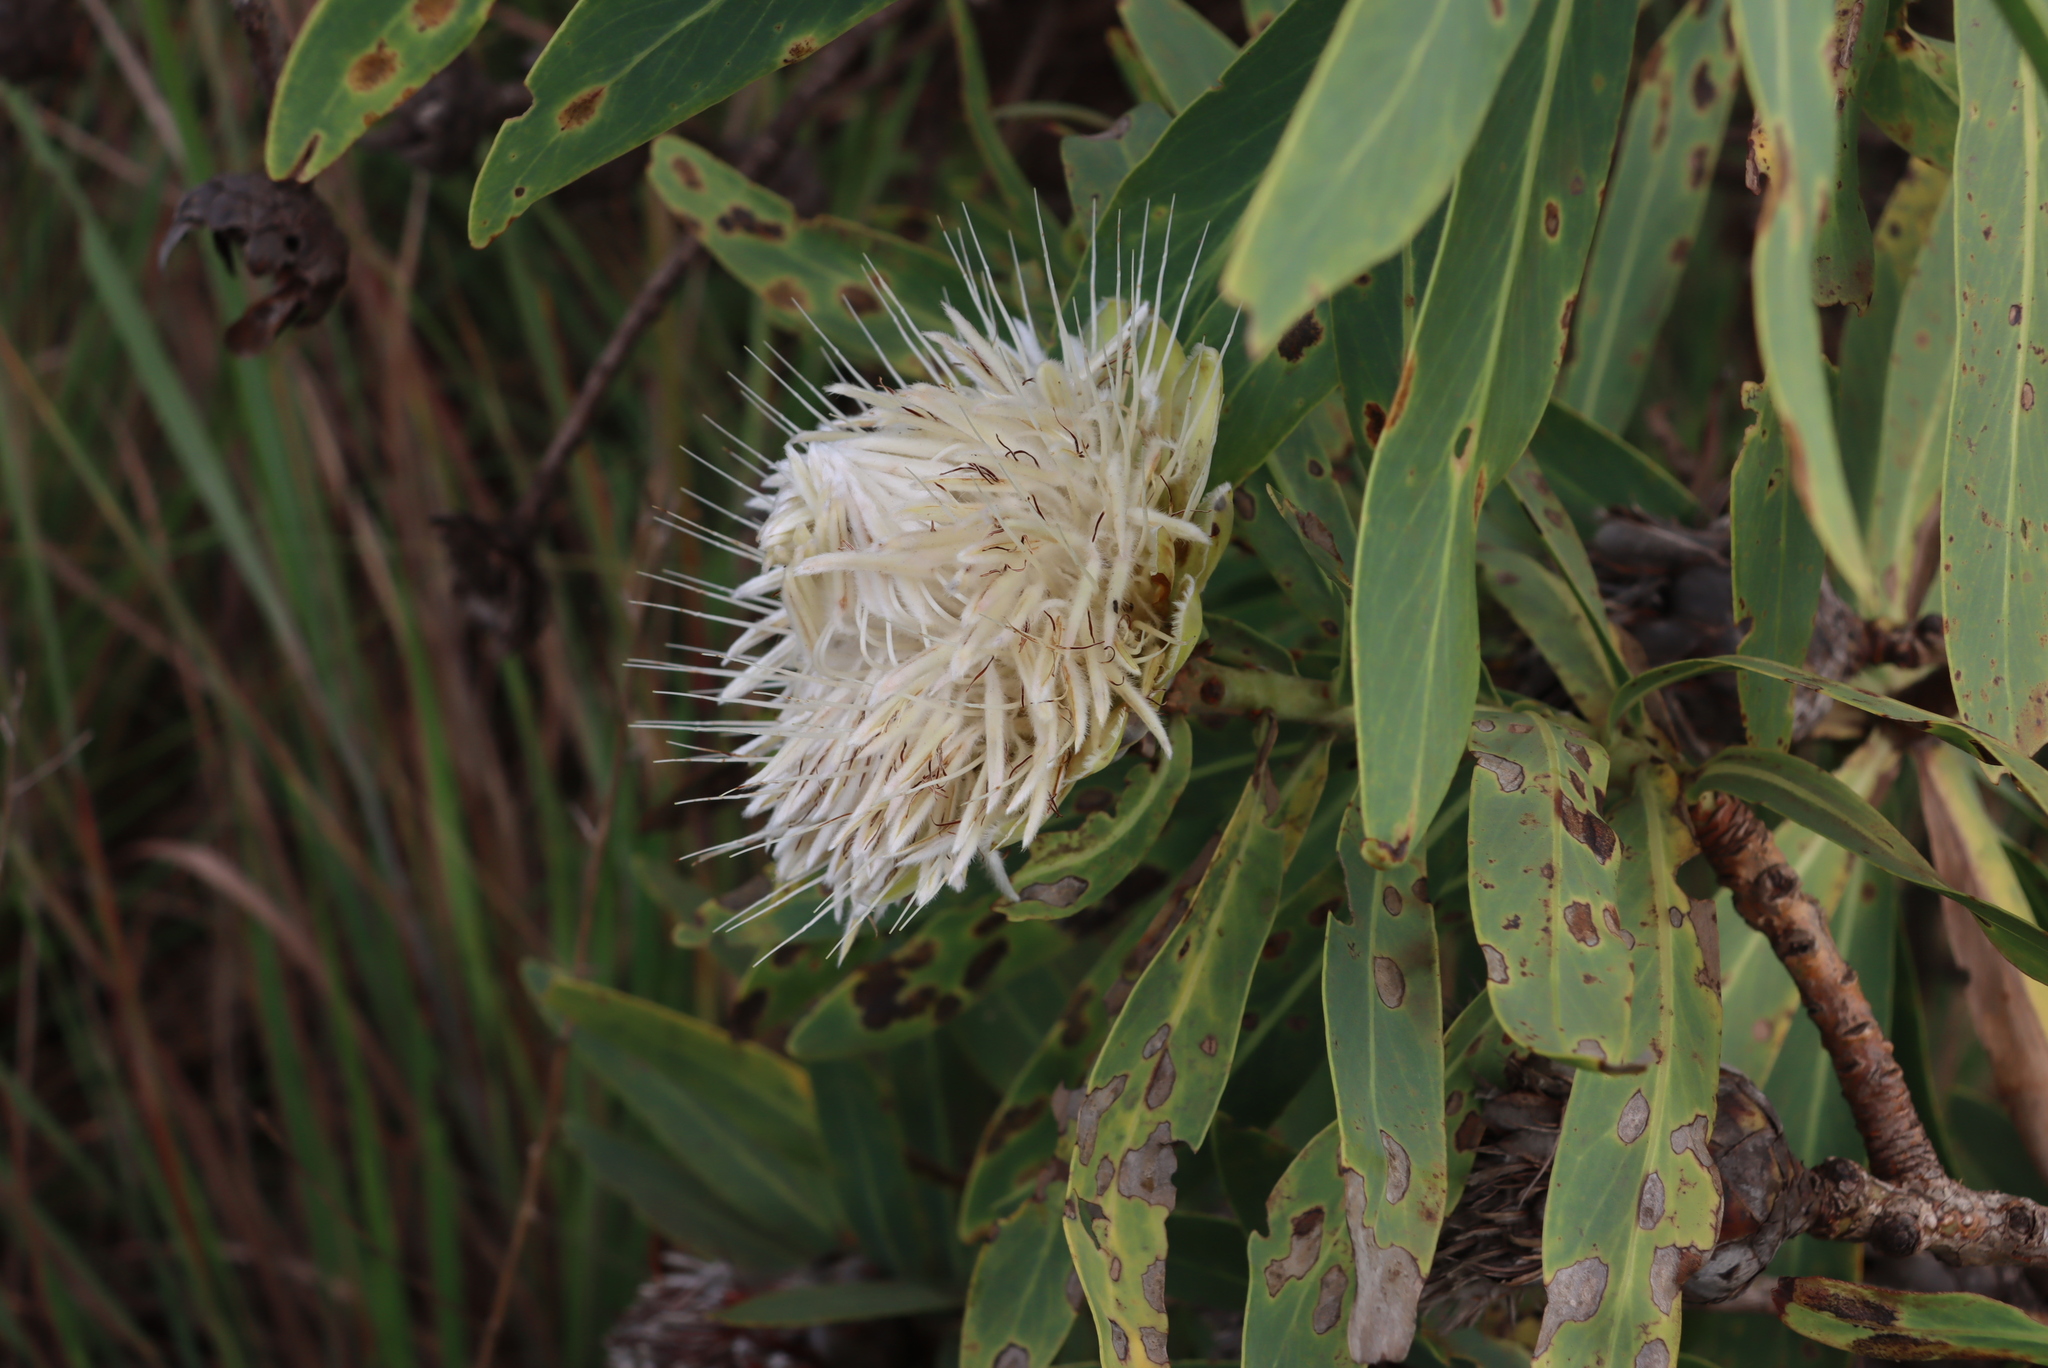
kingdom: Plantae
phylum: Tracheophyta
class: Magnoliopsida
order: Proteales
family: Proteaceae
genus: Protea
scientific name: Protea gaguedi
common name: African protea
